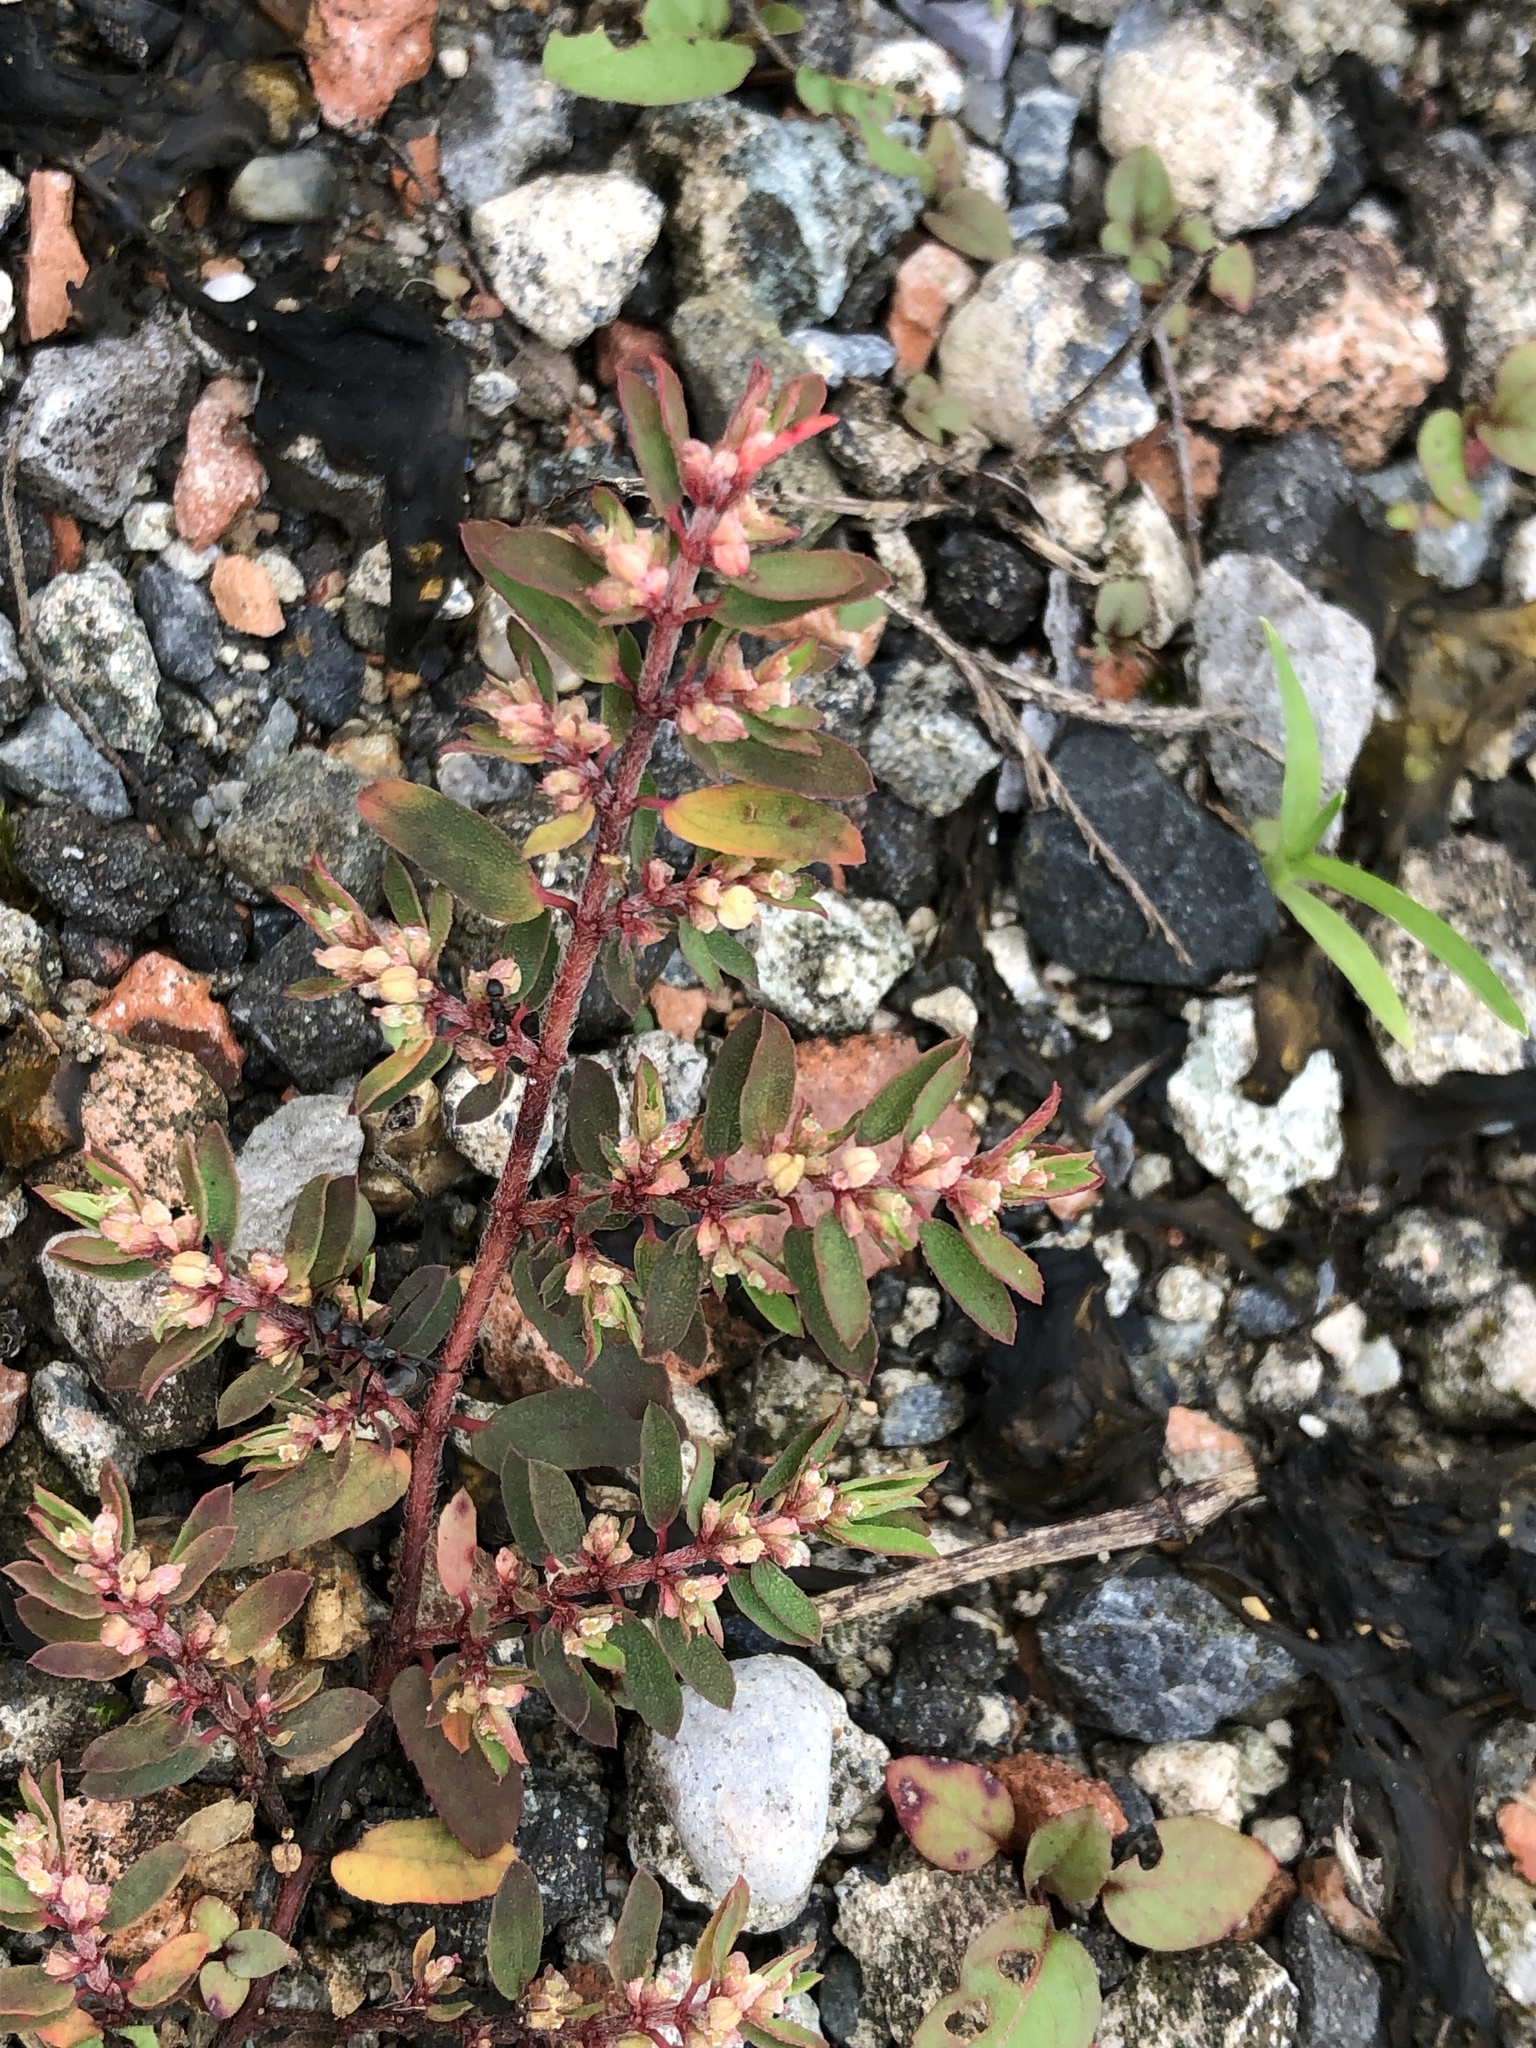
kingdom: Plantae
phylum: Tracheophyta
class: Magnoliopsida
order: Malpighiales
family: Euphorbiaceae
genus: Euphorbia
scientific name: Euphorbia maculata
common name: Spotted spurge
